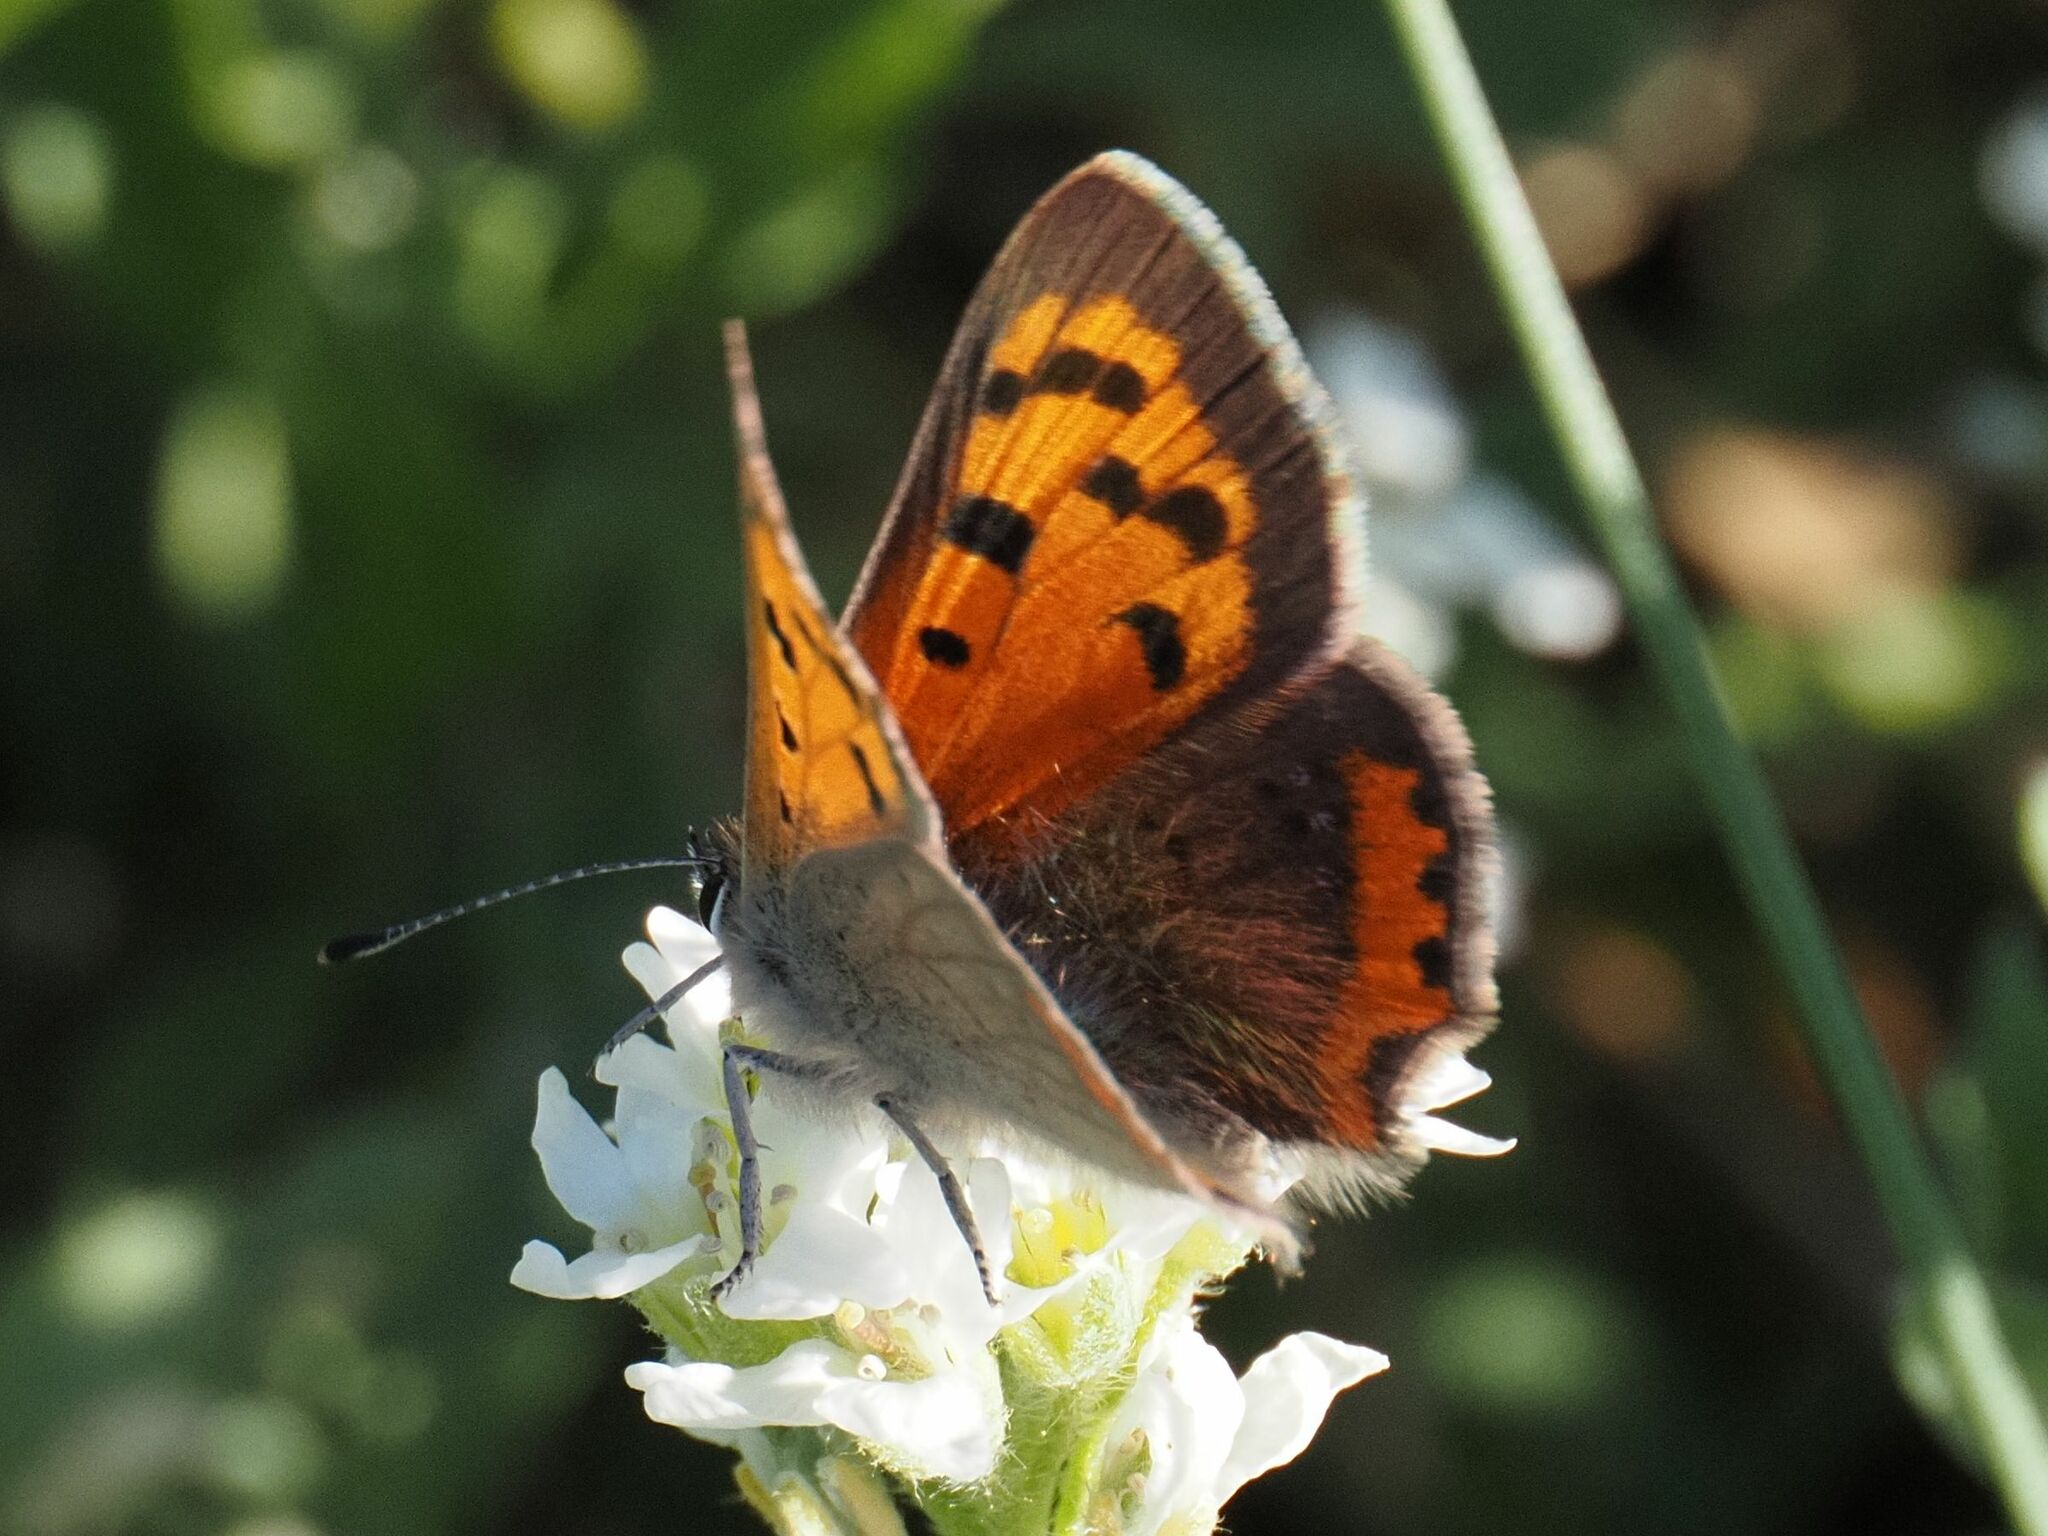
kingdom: Animalia
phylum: Arthropoda
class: Insecta
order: Lepidoptera
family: Lycaenidae
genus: Lycaena
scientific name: Lycaena phlaeas
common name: Small copper
